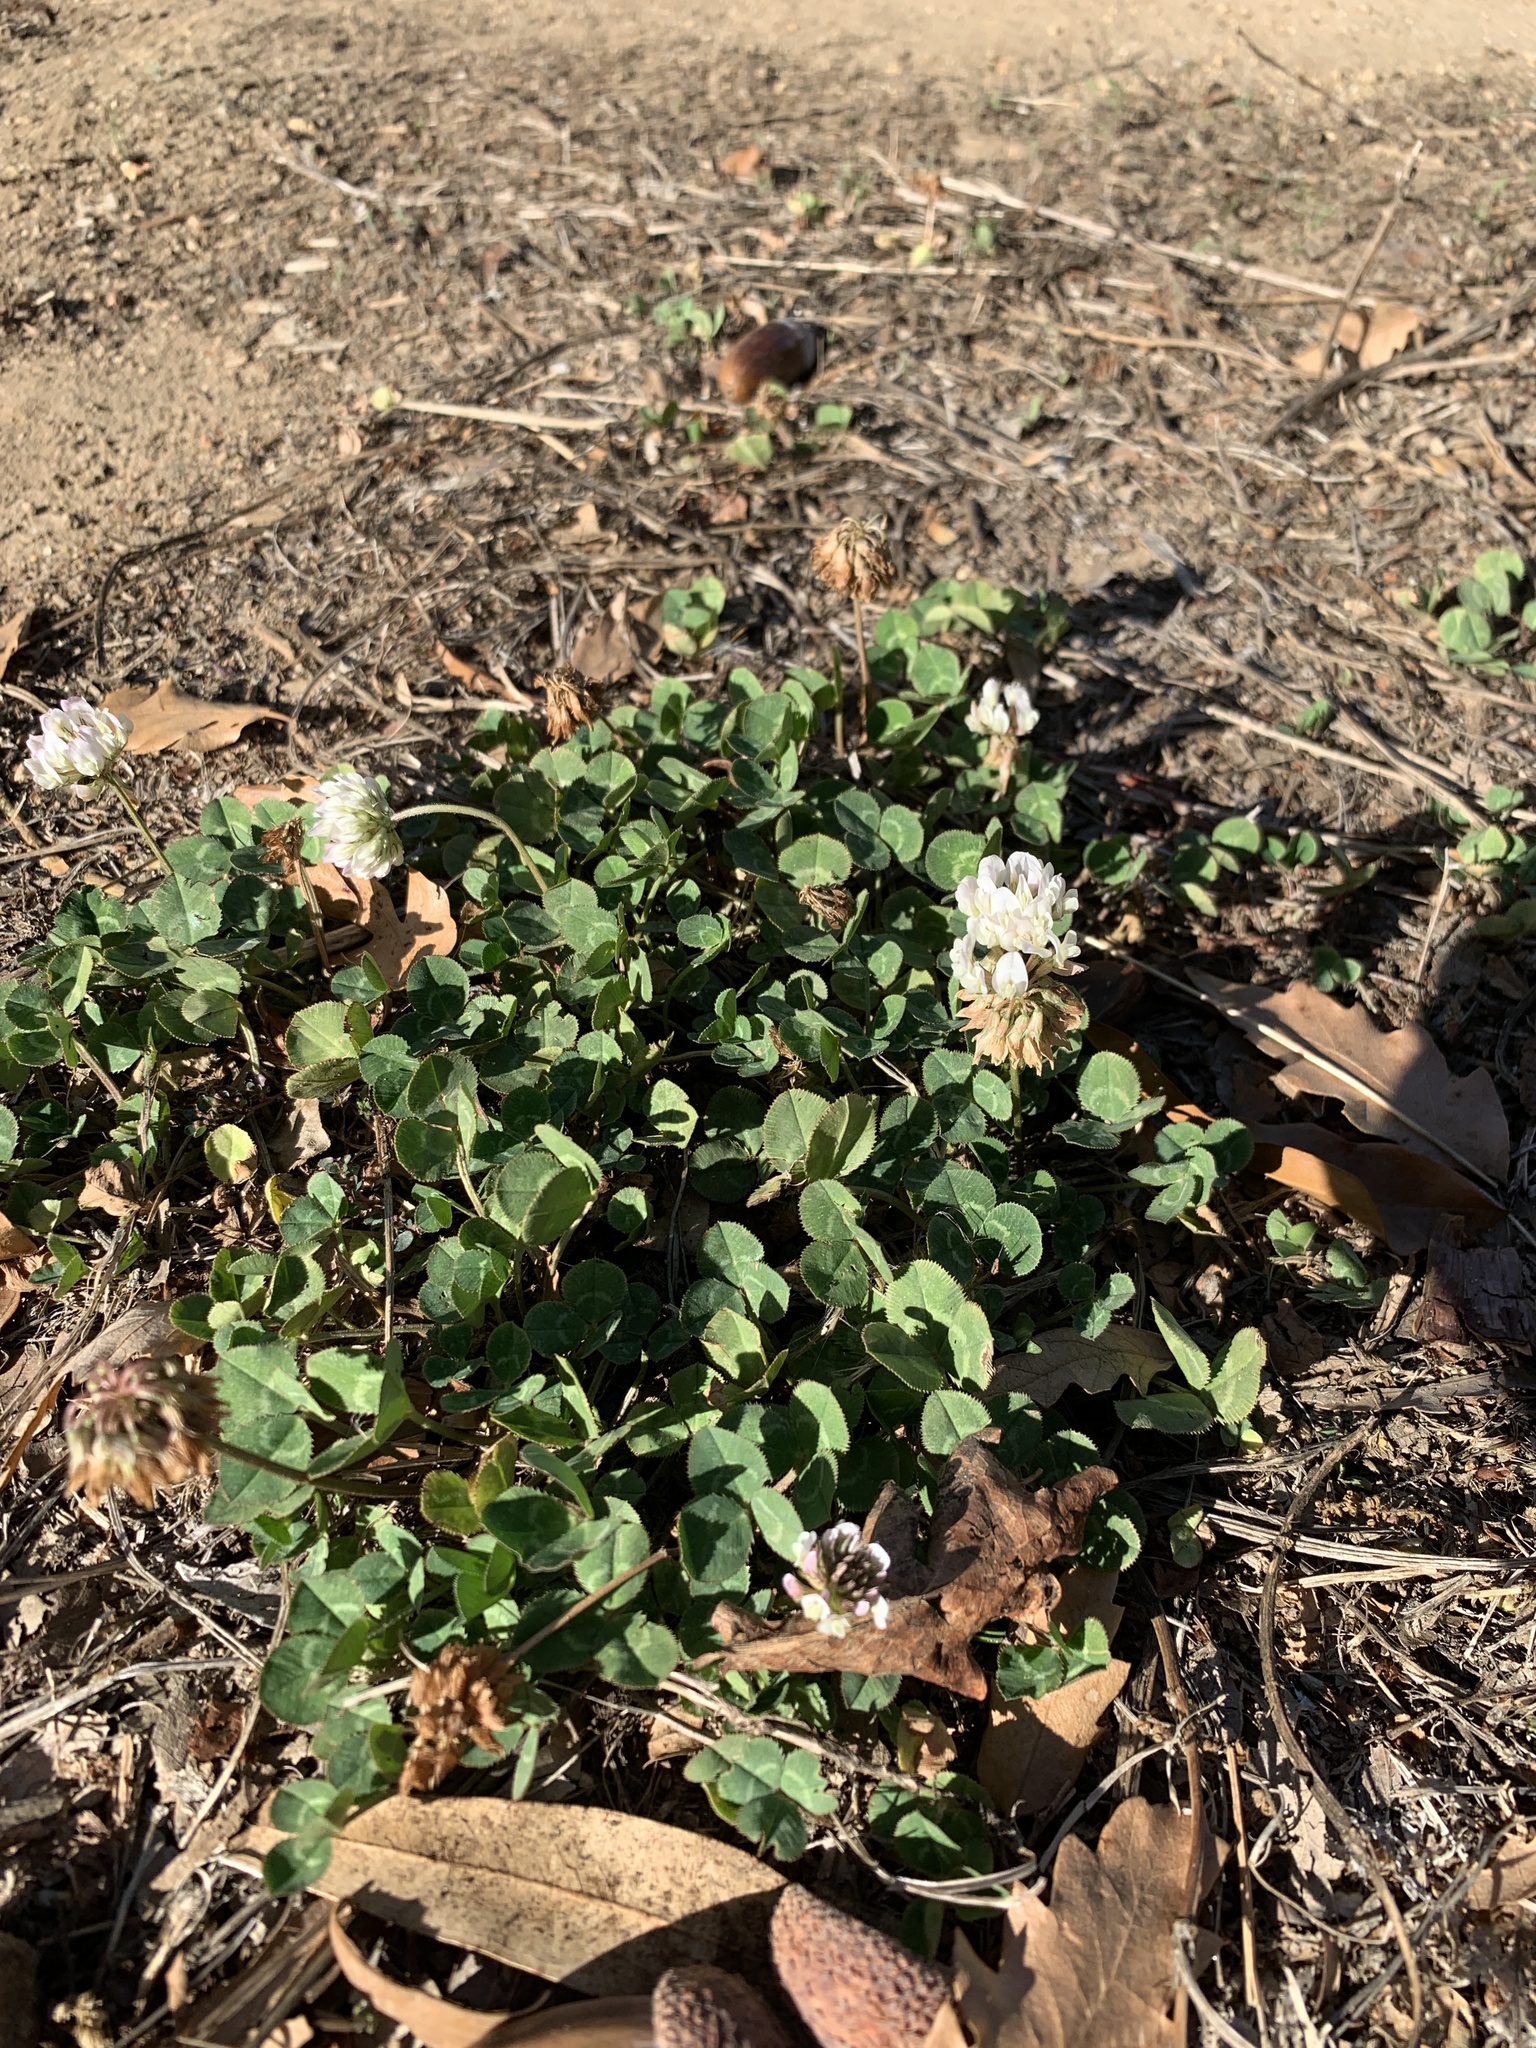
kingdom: Plantae
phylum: Tracheophyta
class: Magnoliopsida
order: Fabales
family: Fabaceae
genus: Trifolium
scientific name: Trifolium repens
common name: White clover
